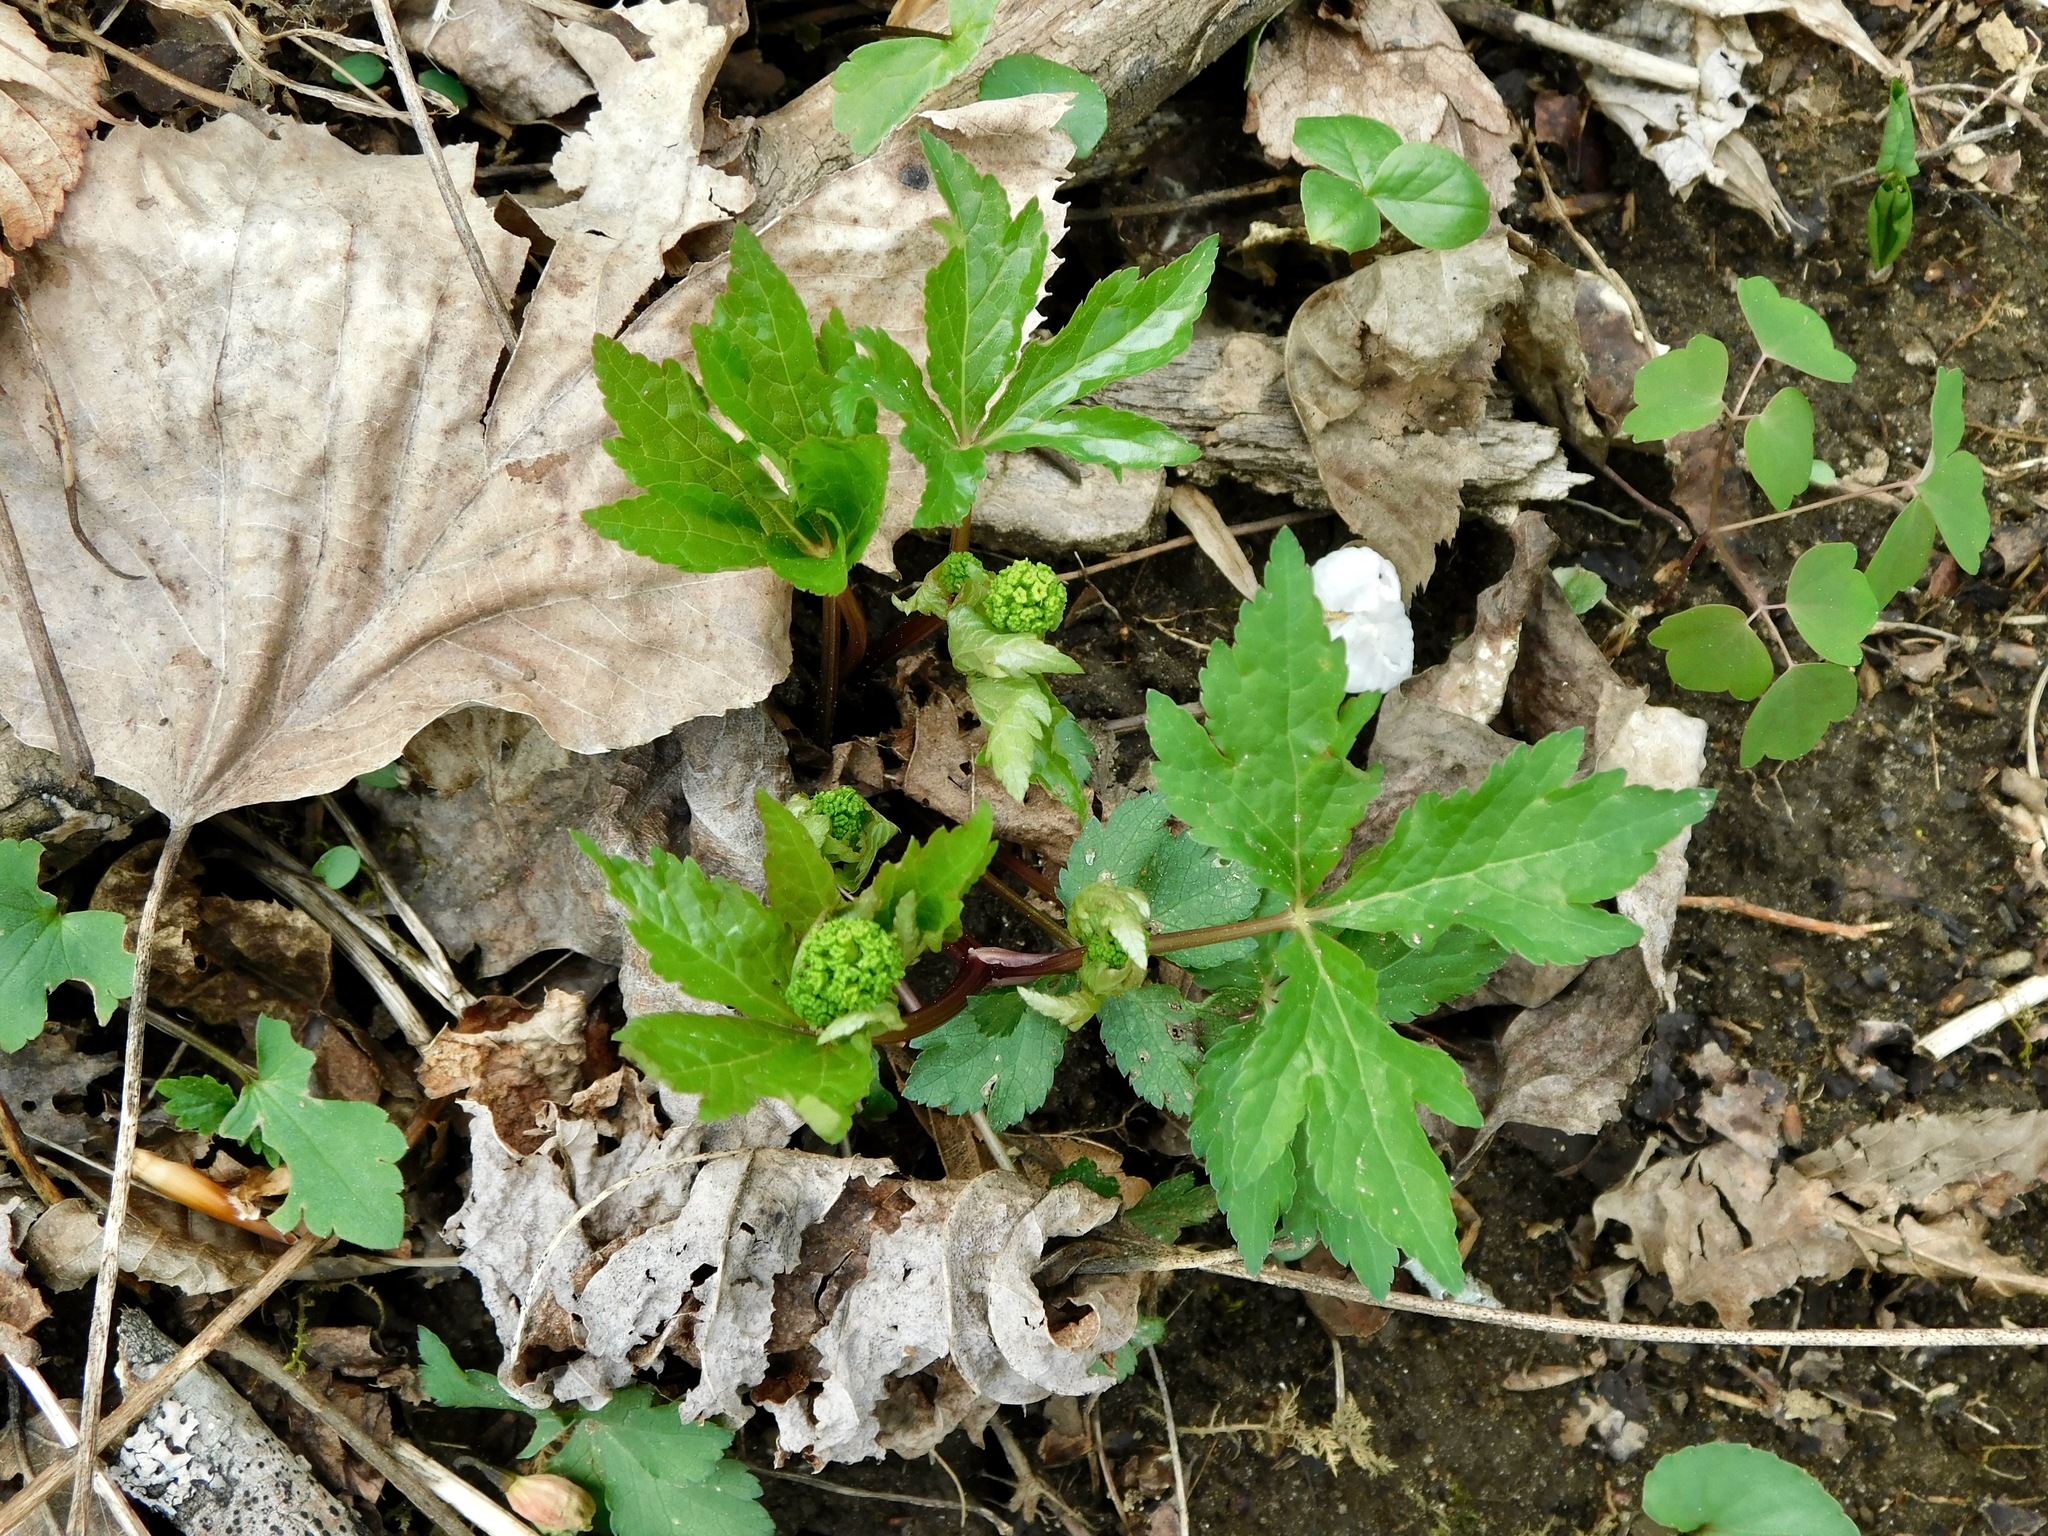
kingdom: Plantae
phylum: Tracheophyta
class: Magnoliopsida
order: Apiales
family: Apiaceae
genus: Sanicula
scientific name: Sanicula odorata
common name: Cluster sanicle
